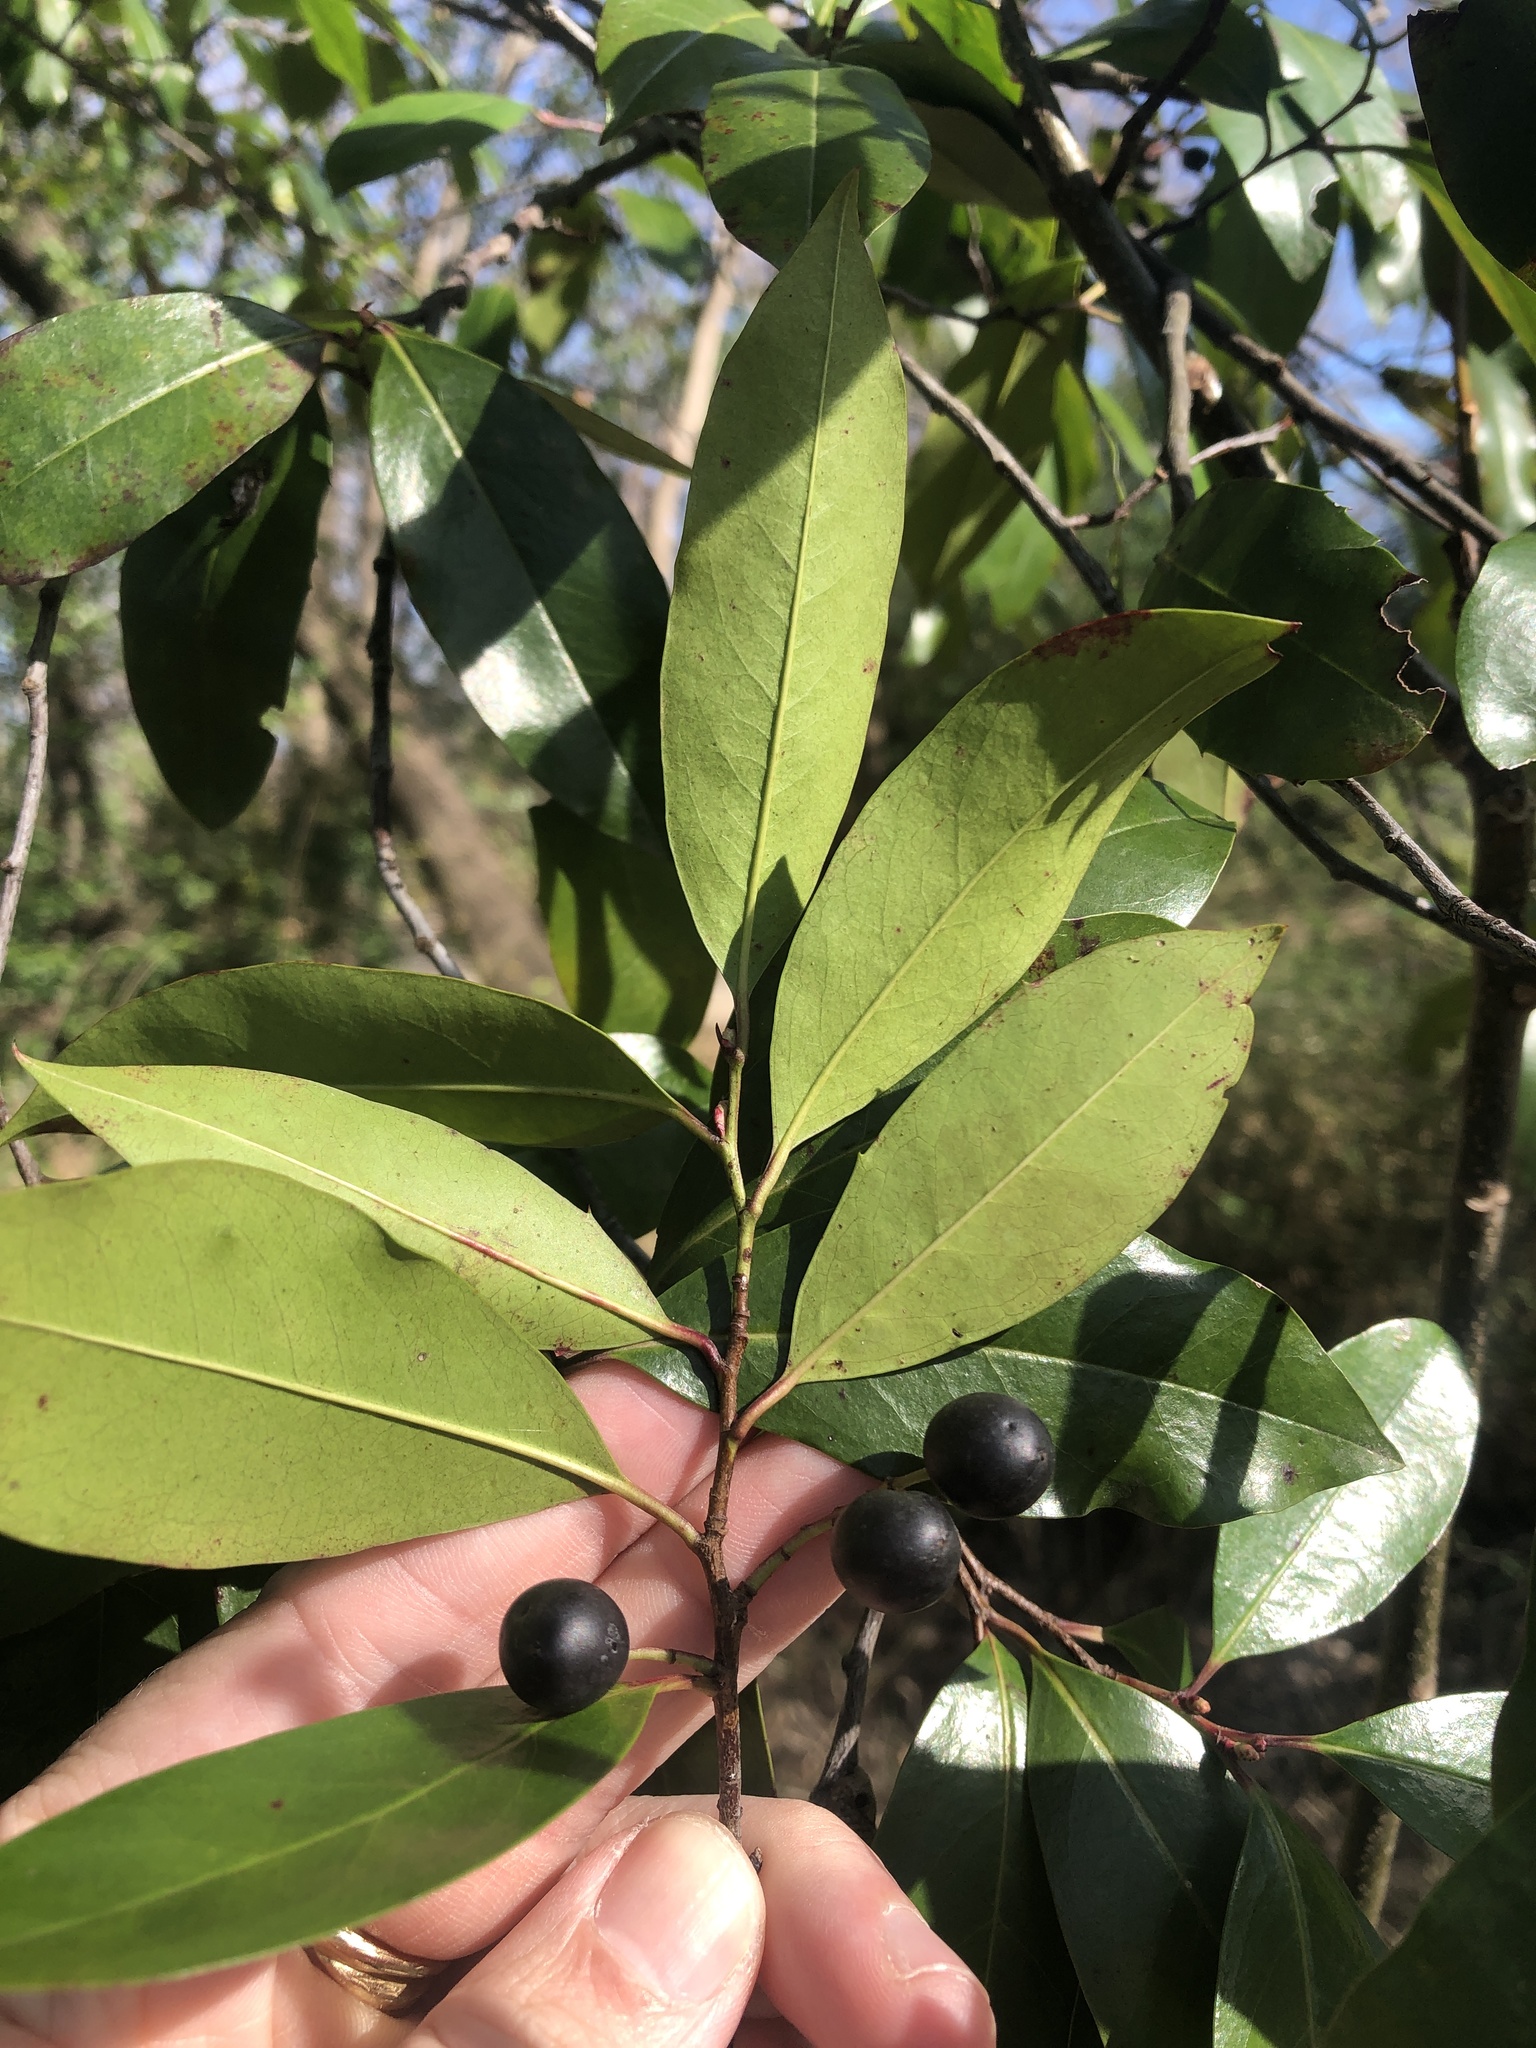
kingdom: Plantae
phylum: Tracheophyta
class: Magnoliopsida
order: Rosales
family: Rosaceae
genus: Prunus
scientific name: Prunus caroliniana
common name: Carolina laurel cherry
